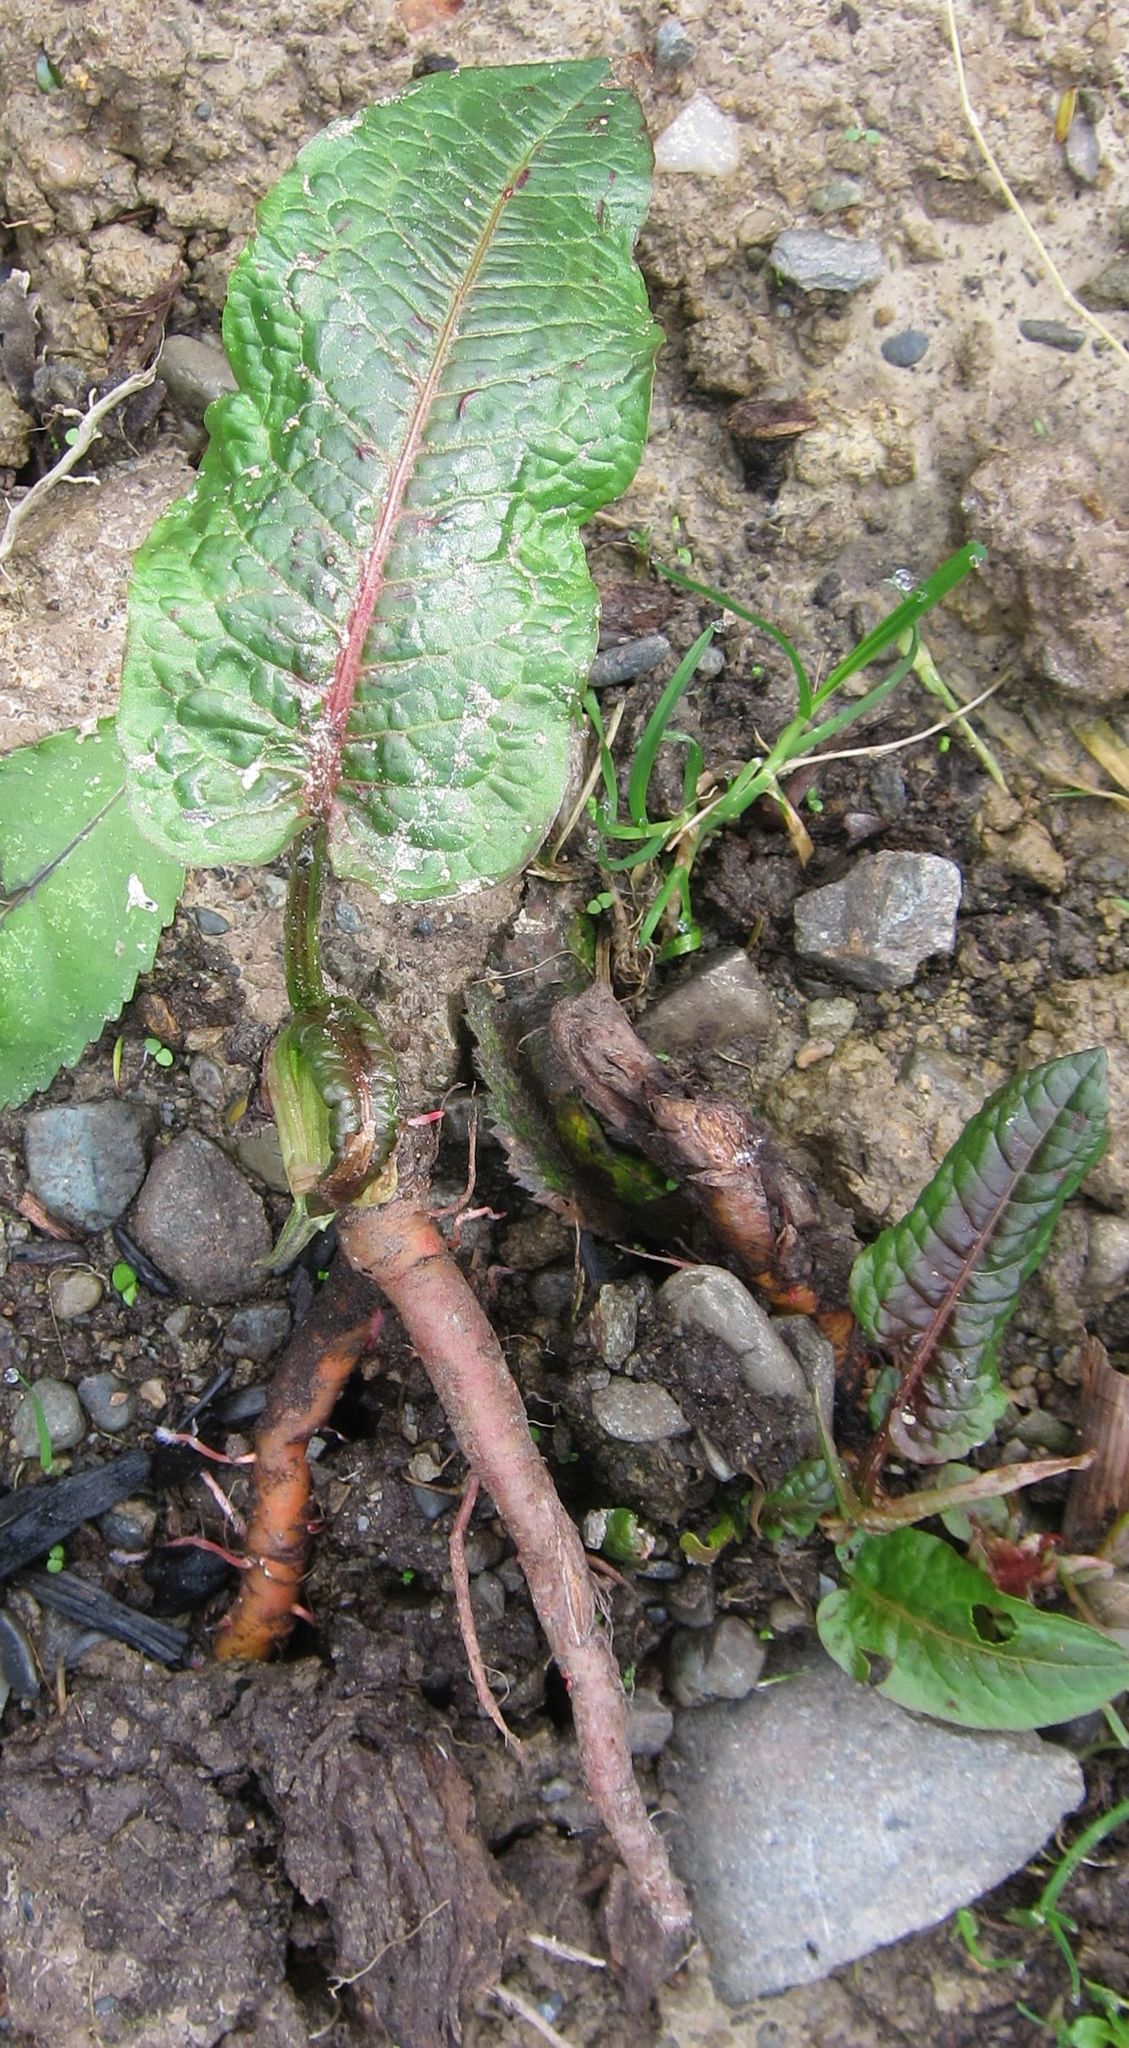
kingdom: Plantae
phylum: Tracheophyta
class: Magnoliopsida
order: Caryophyllales
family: Polygonaceae
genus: Rumex
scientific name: Rumex obtusifolius
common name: Bitter dock
